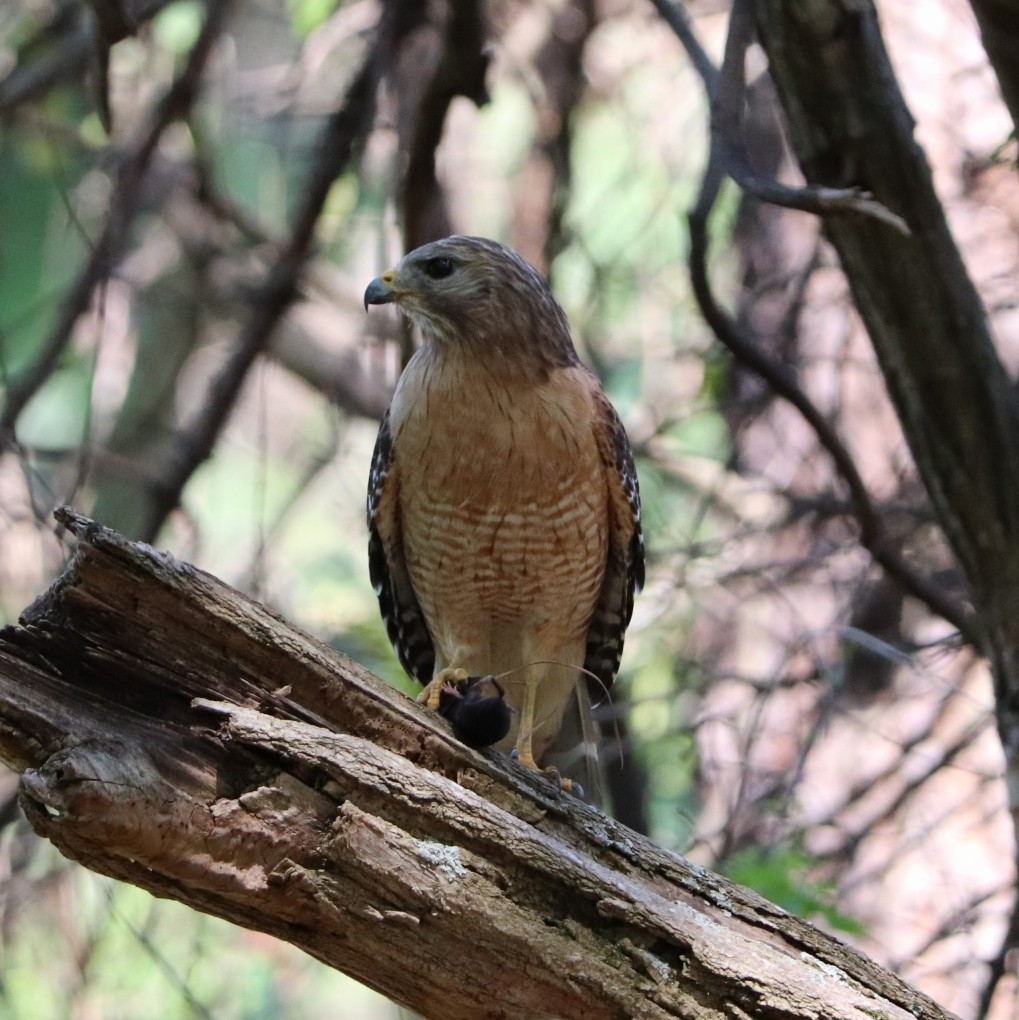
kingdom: Animalia
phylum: Chordata
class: Aves
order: Accipitriformes
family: Accipitridae
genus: Buteo
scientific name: Buteo lineatus
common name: Red-shouldered hawk
